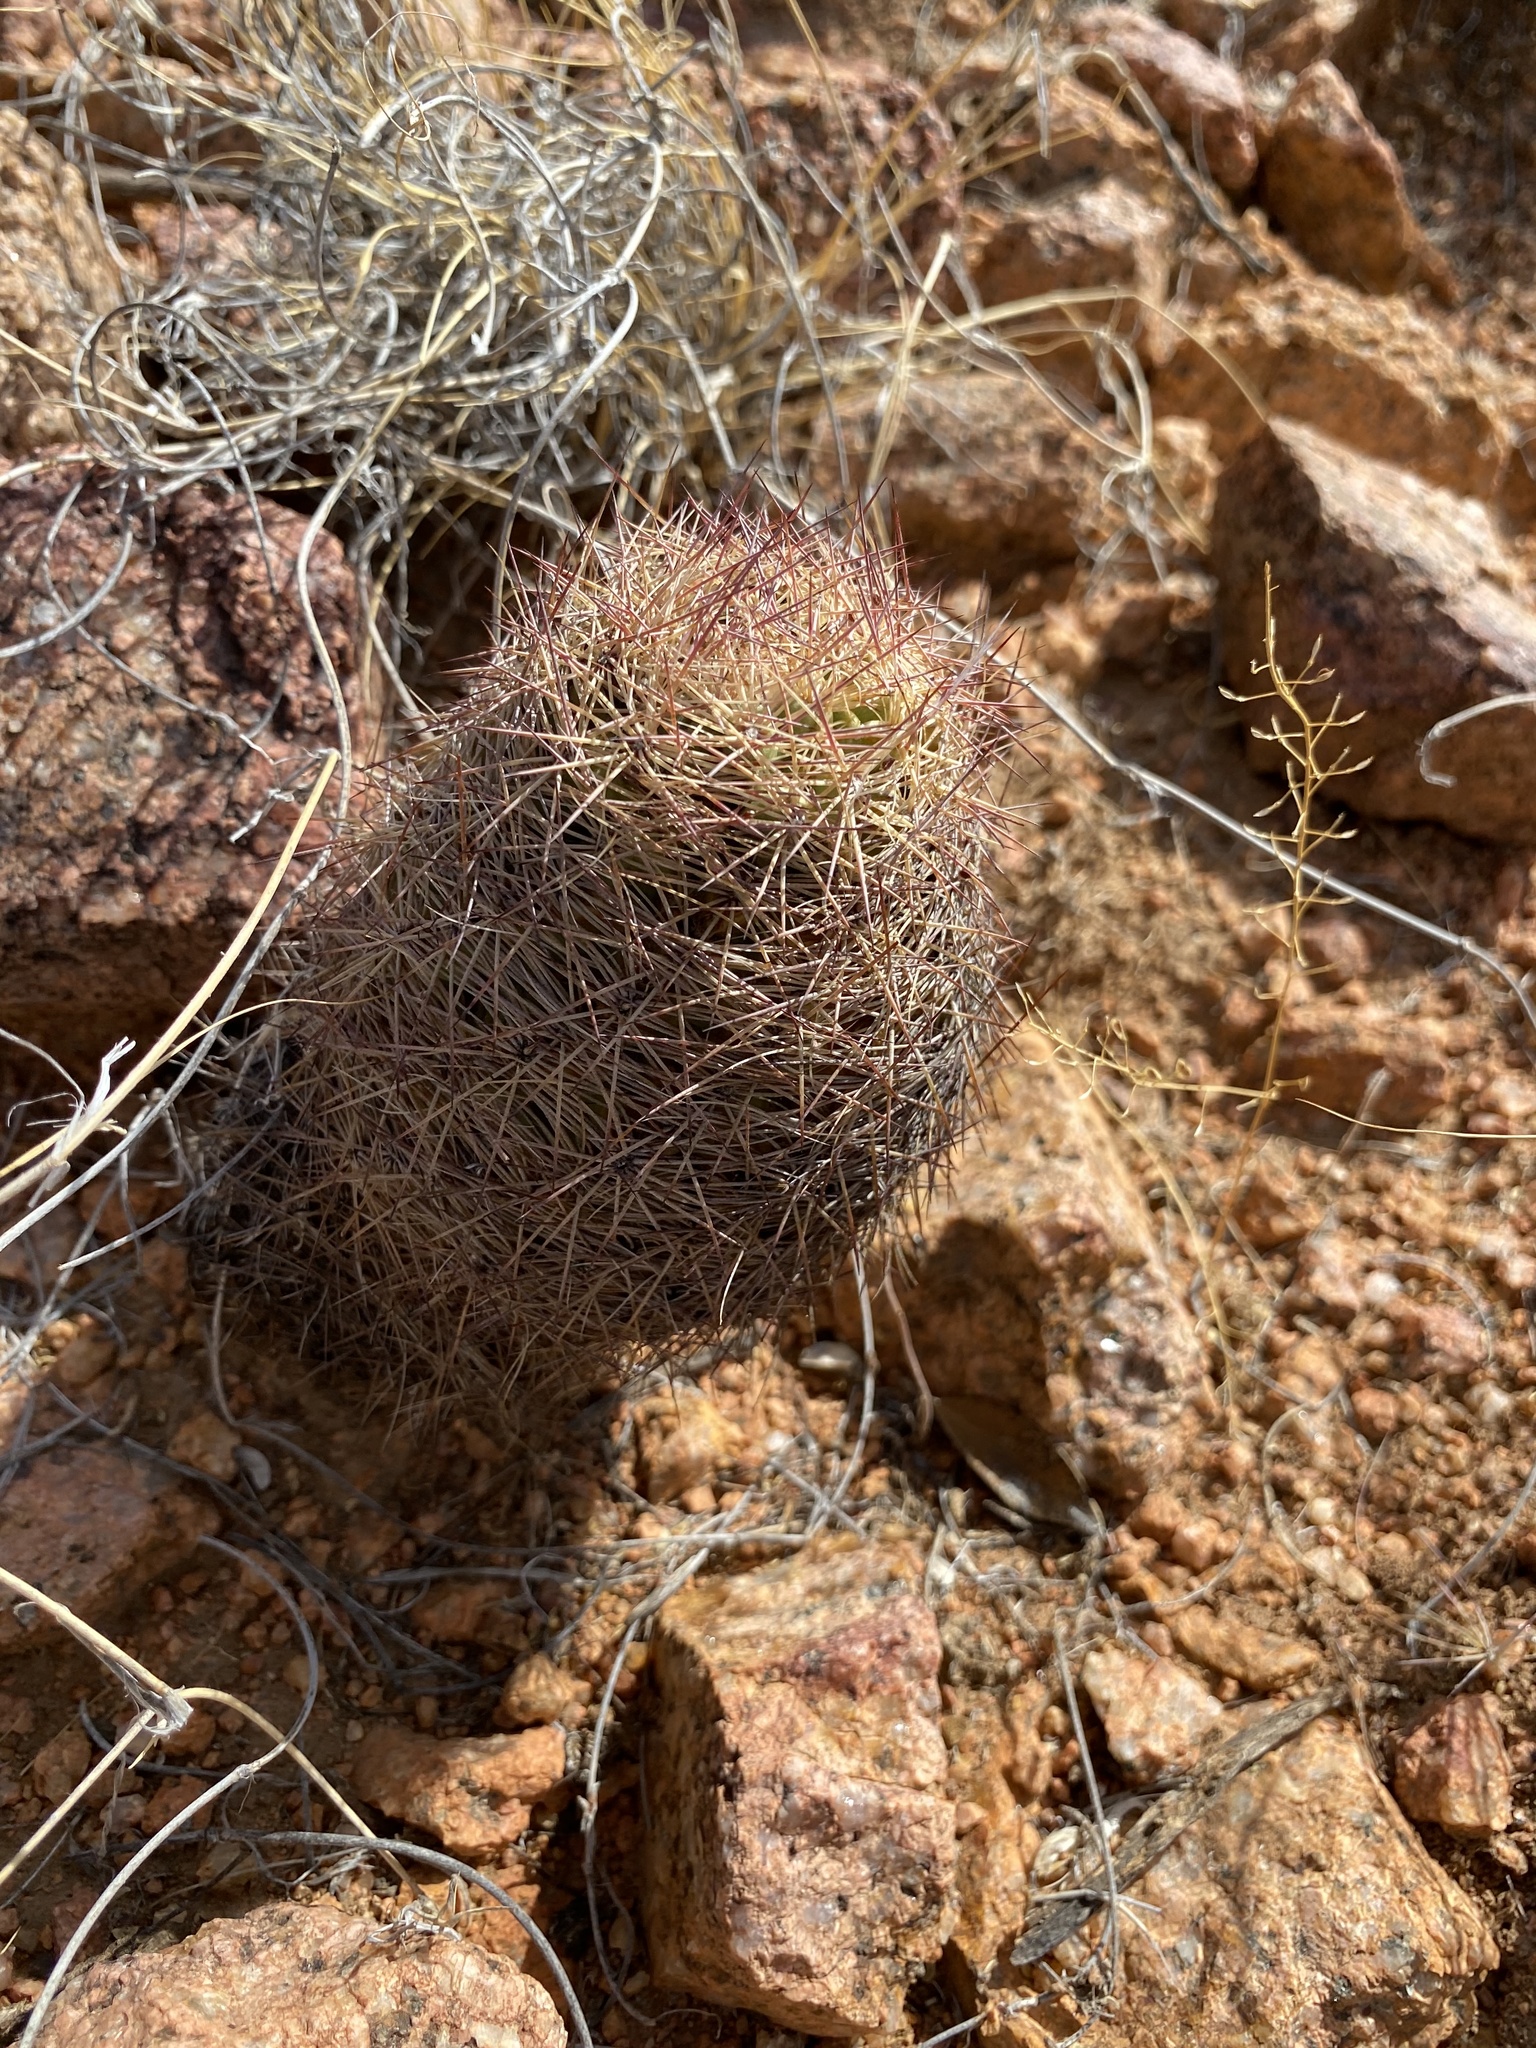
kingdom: Plantae
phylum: Tracheophyta
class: Magnoliopsida
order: Caryophyllales
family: Cactaceae
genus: Sclerocactus
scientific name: Sclerocactus intertextus
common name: White fish-hook cactus
